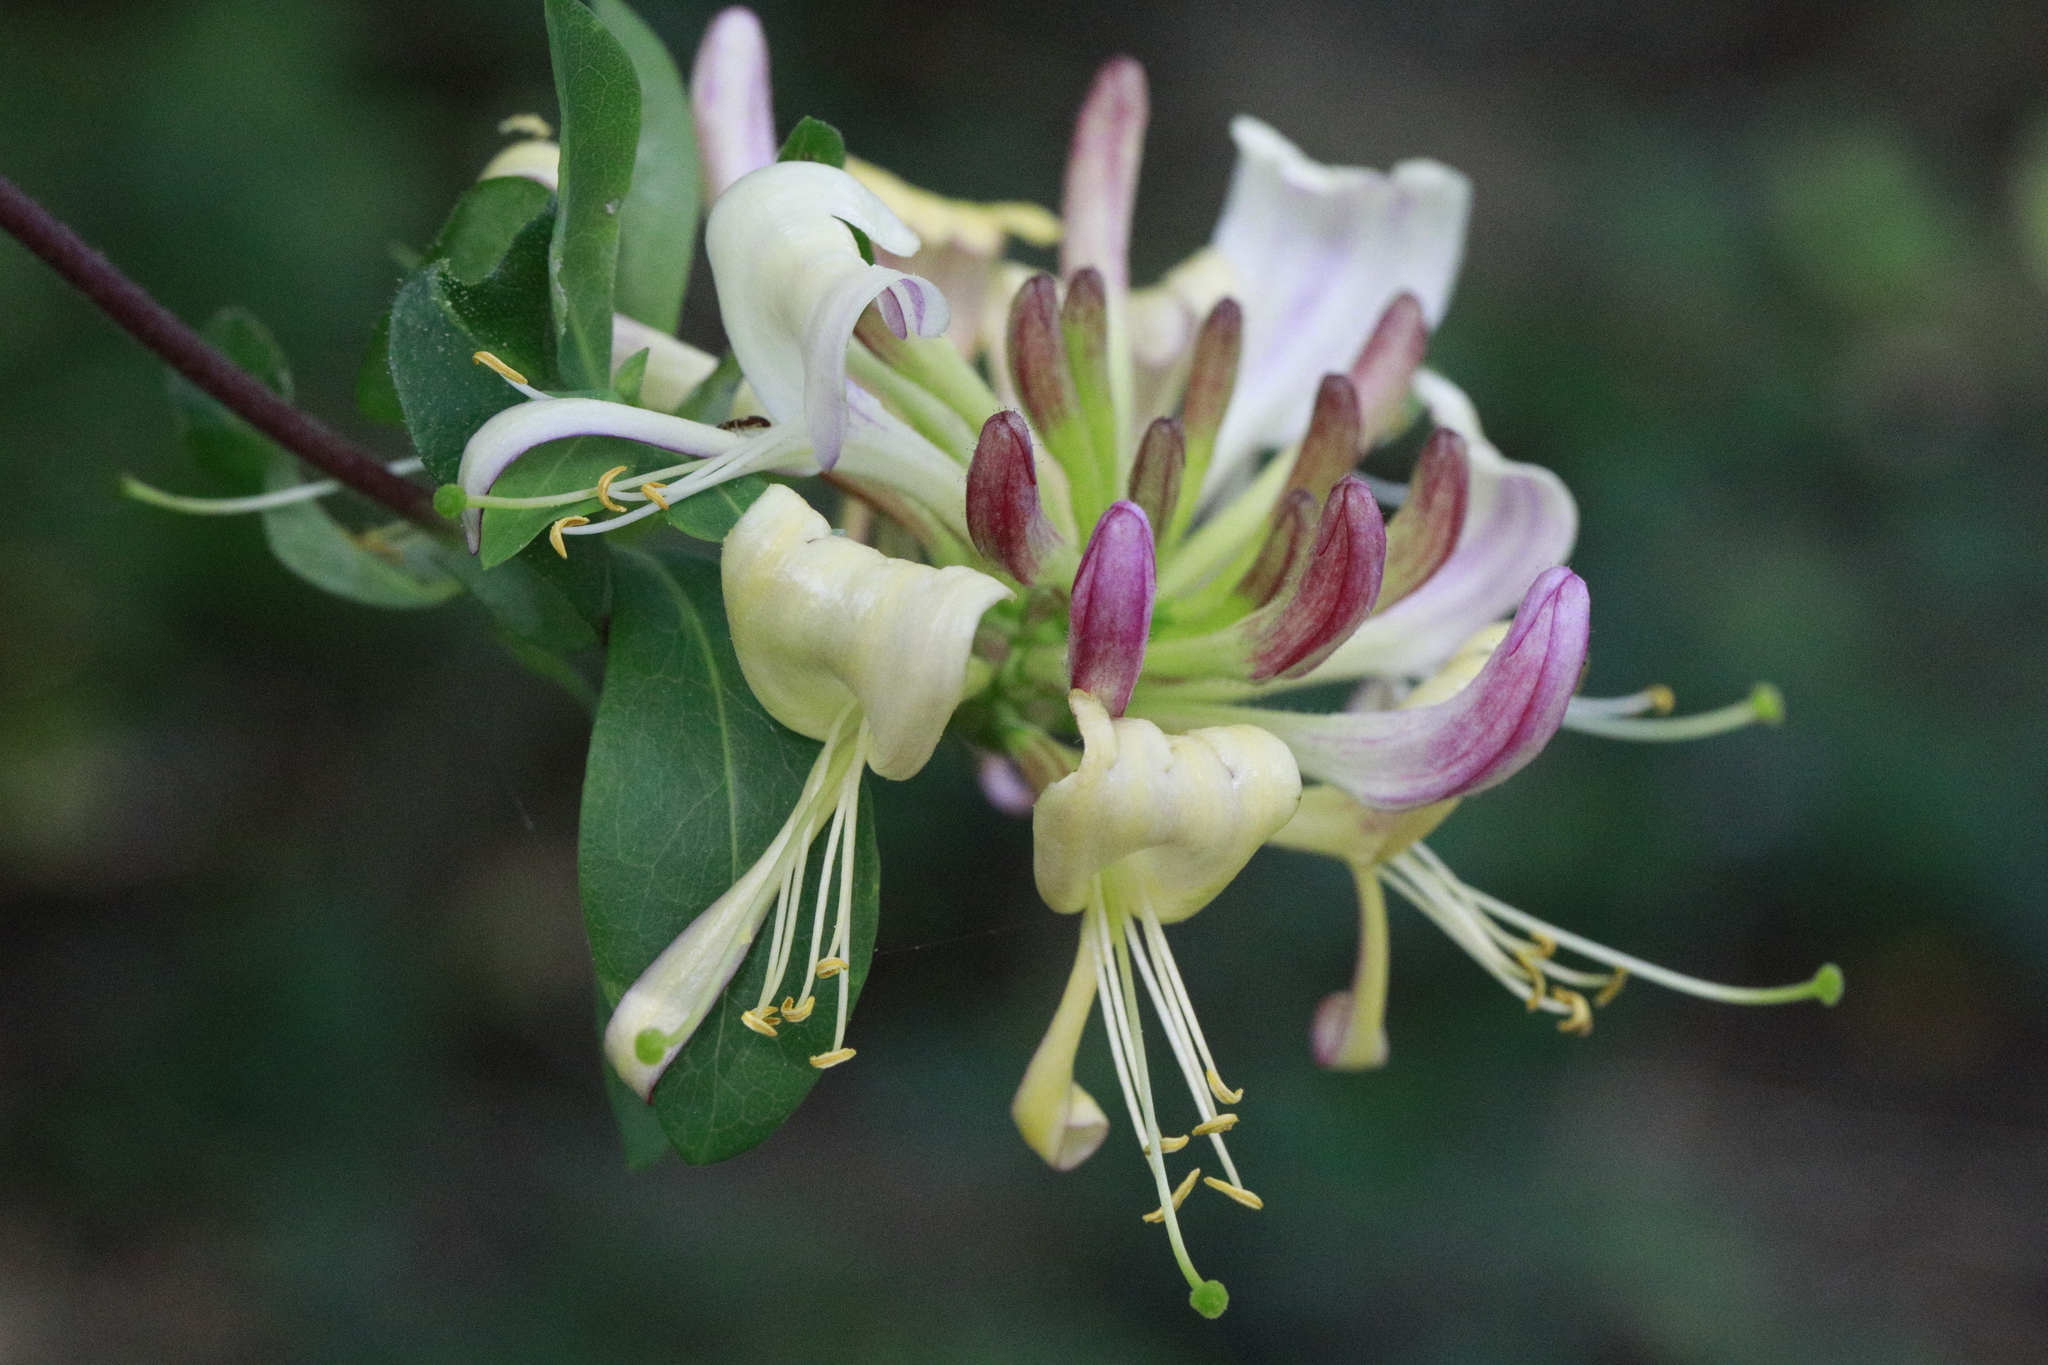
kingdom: Plantae
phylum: Tracheophyta
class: Magnoliopsida
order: Dipsacales
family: Caprifoliaceae
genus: Lonicera
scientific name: Lonicera periclymenum
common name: European honeysuckle
